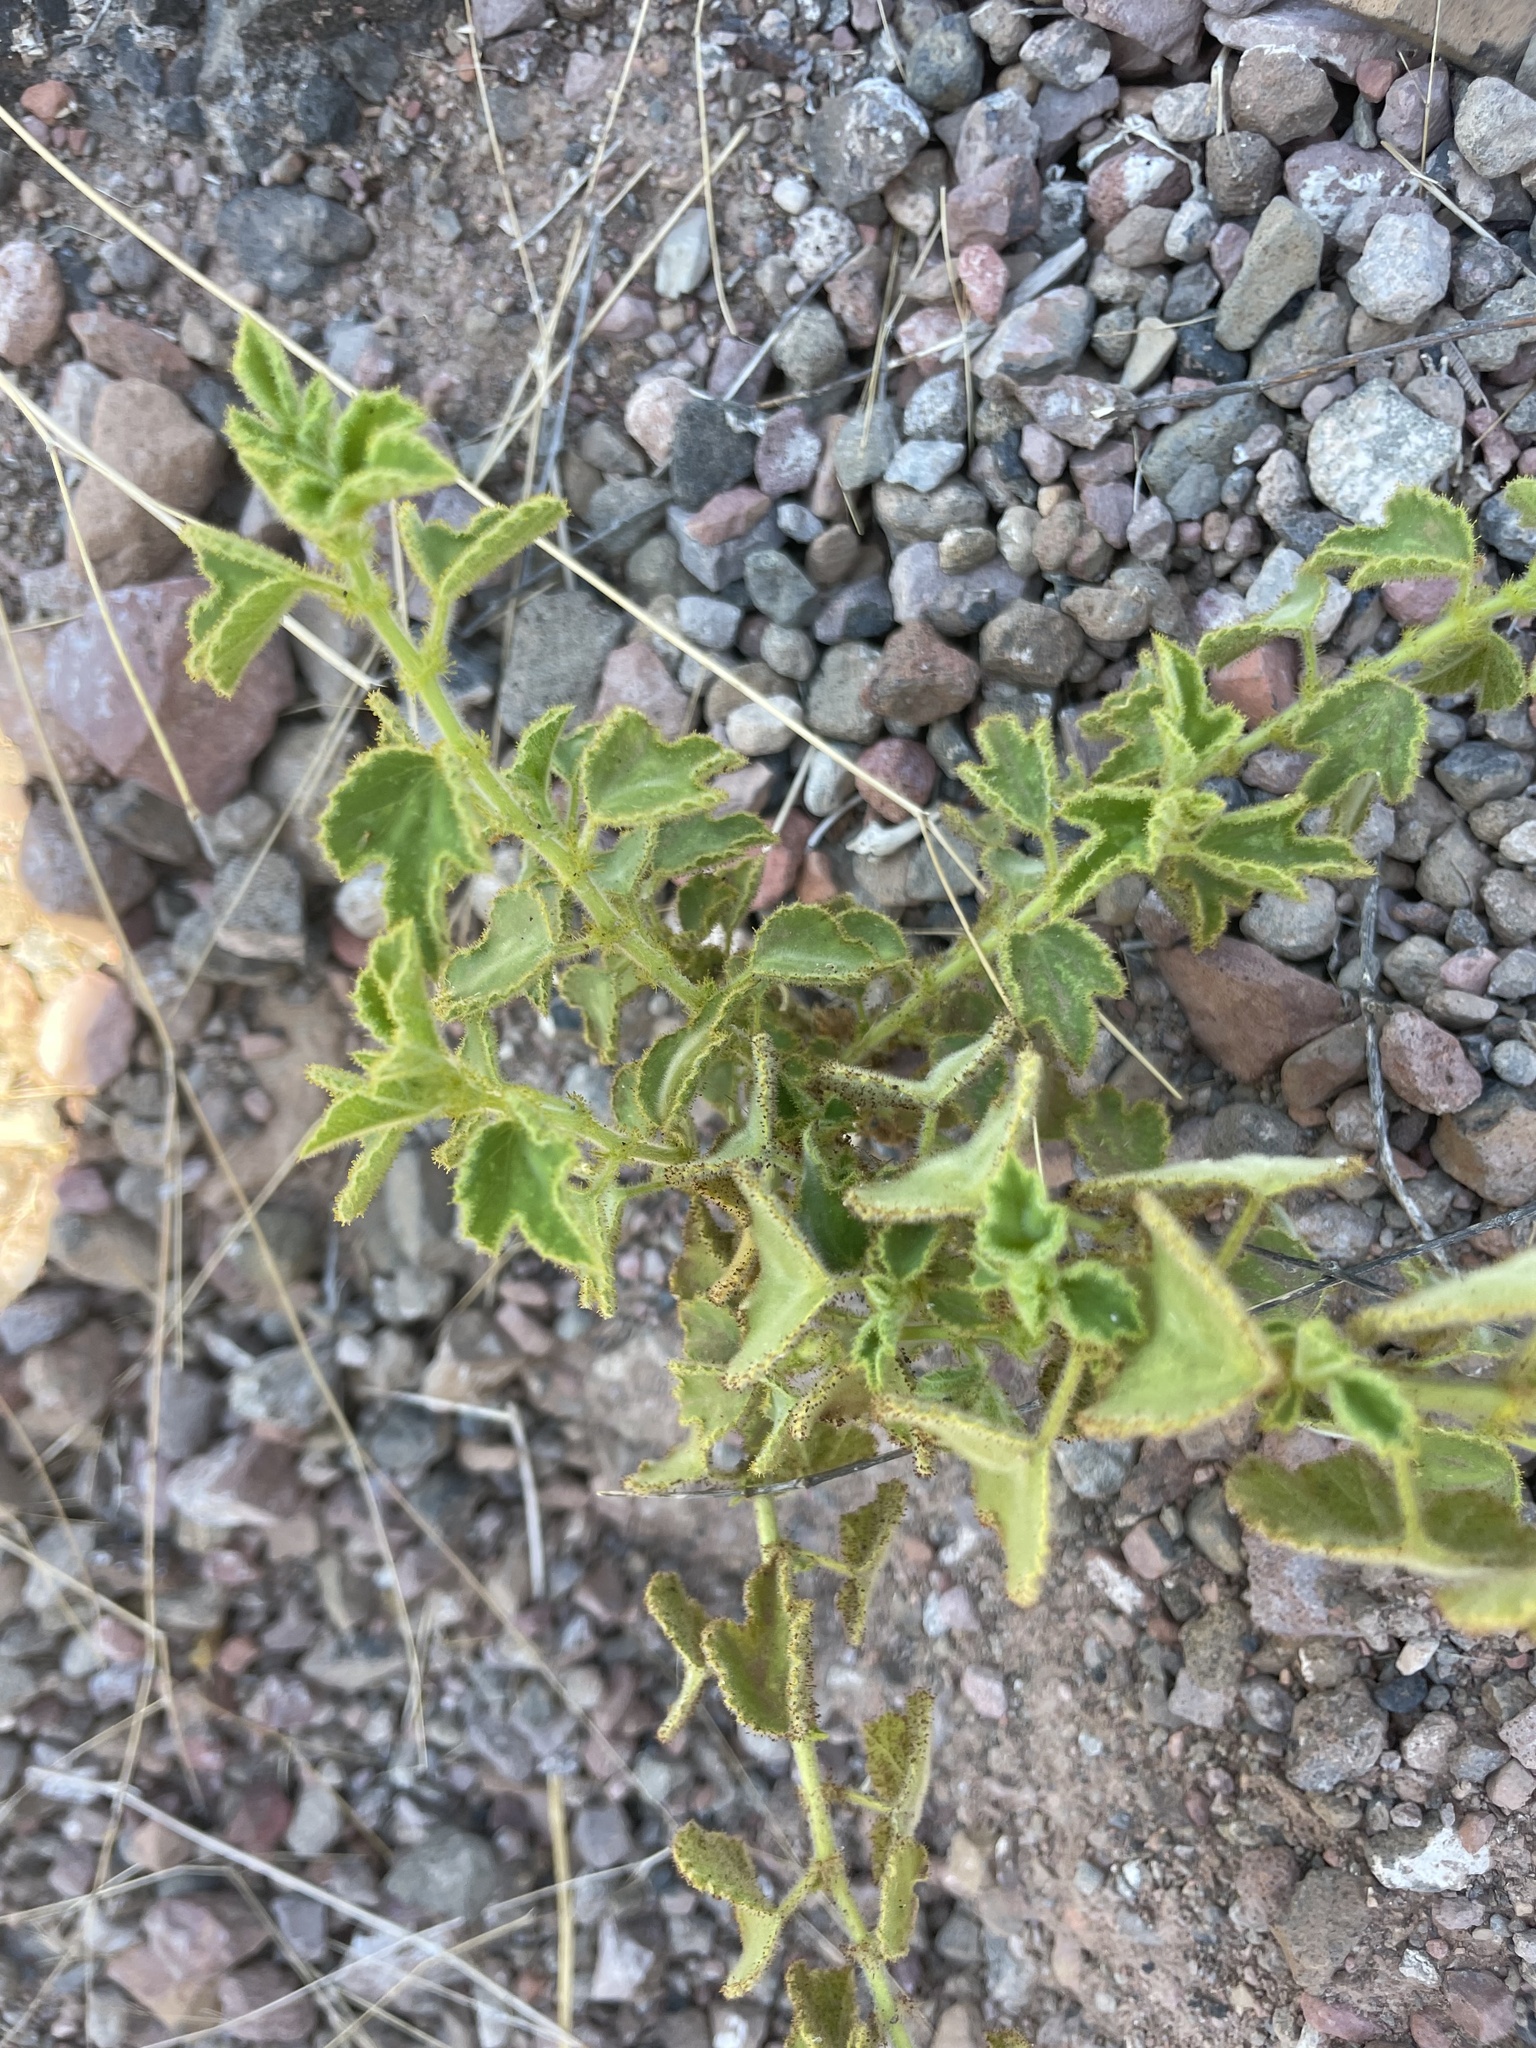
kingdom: Plantae
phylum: Tracheophyta
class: Magnoliopsida
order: Malpighiales
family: Passifloraceae
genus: Passiflora
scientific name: Passiflora palmeri
